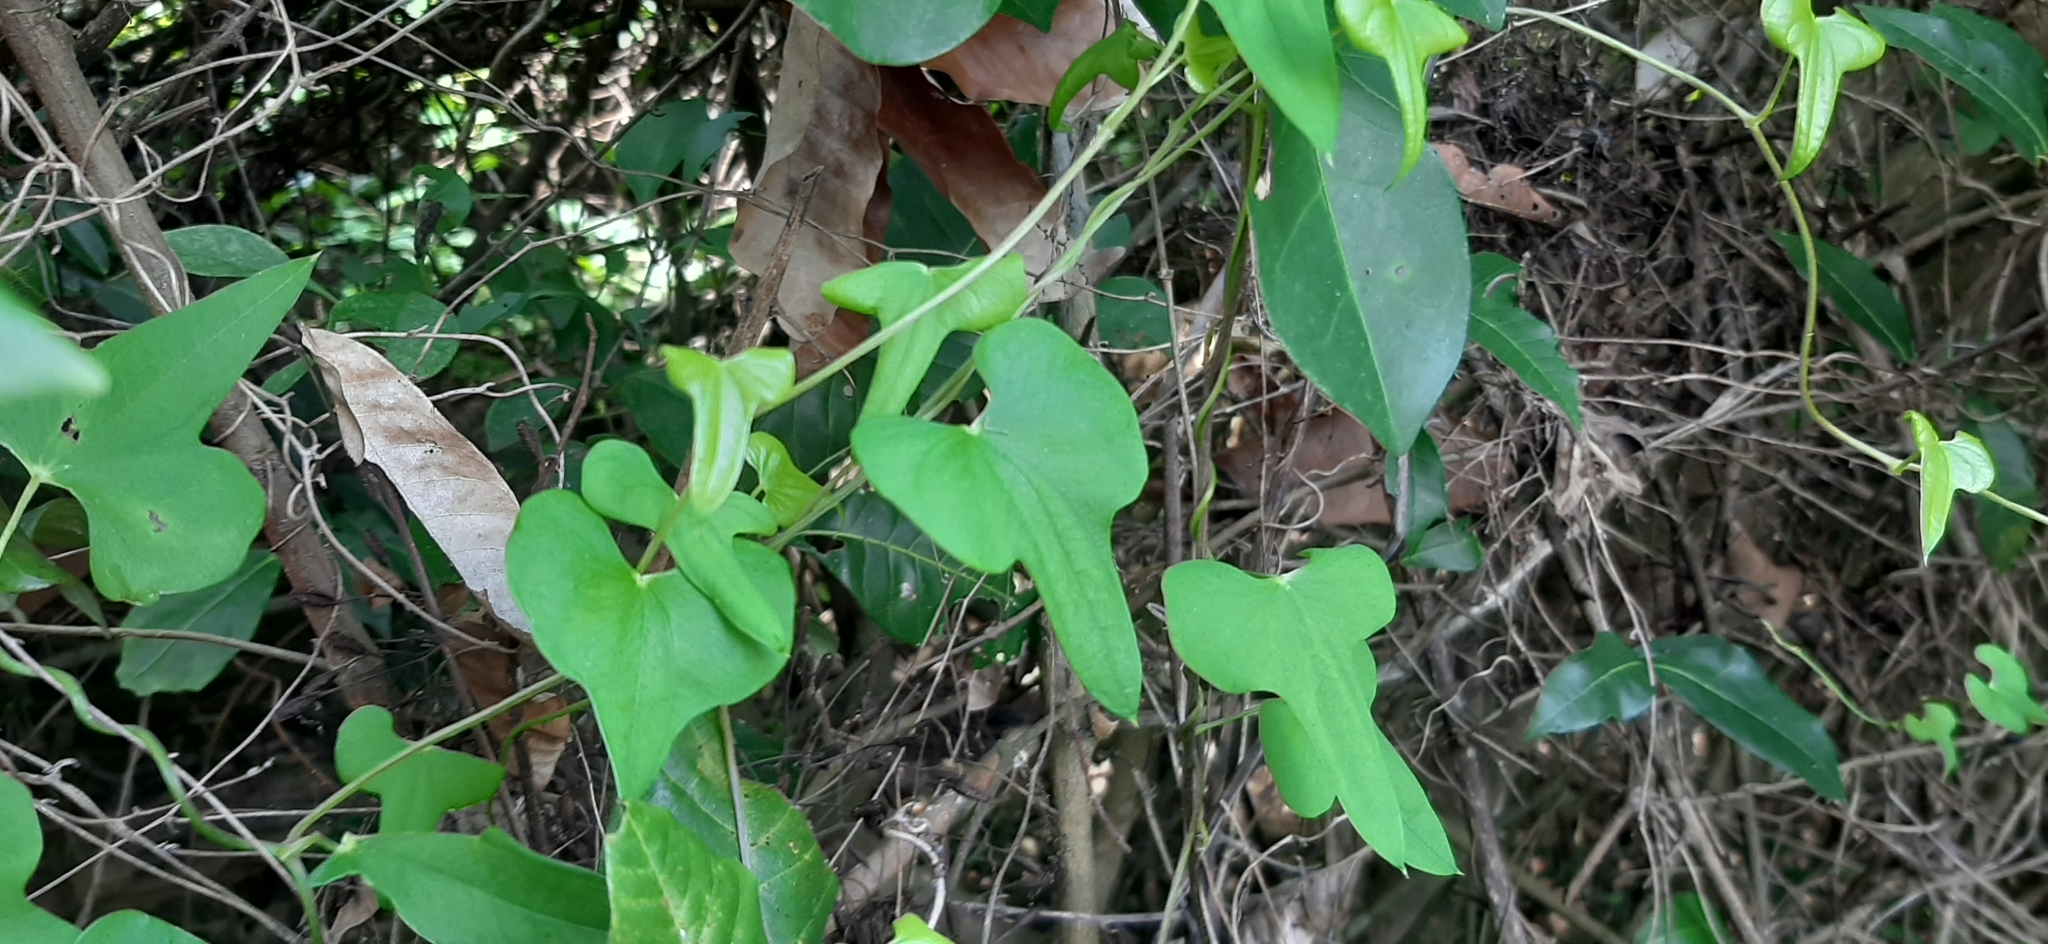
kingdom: Plantae
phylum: Tracheophyta
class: Liliopsida
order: Dioscoreales
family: Dioscoreaceae
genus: Dioscorea
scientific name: Dioscorea polystachya
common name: Chinese yam
